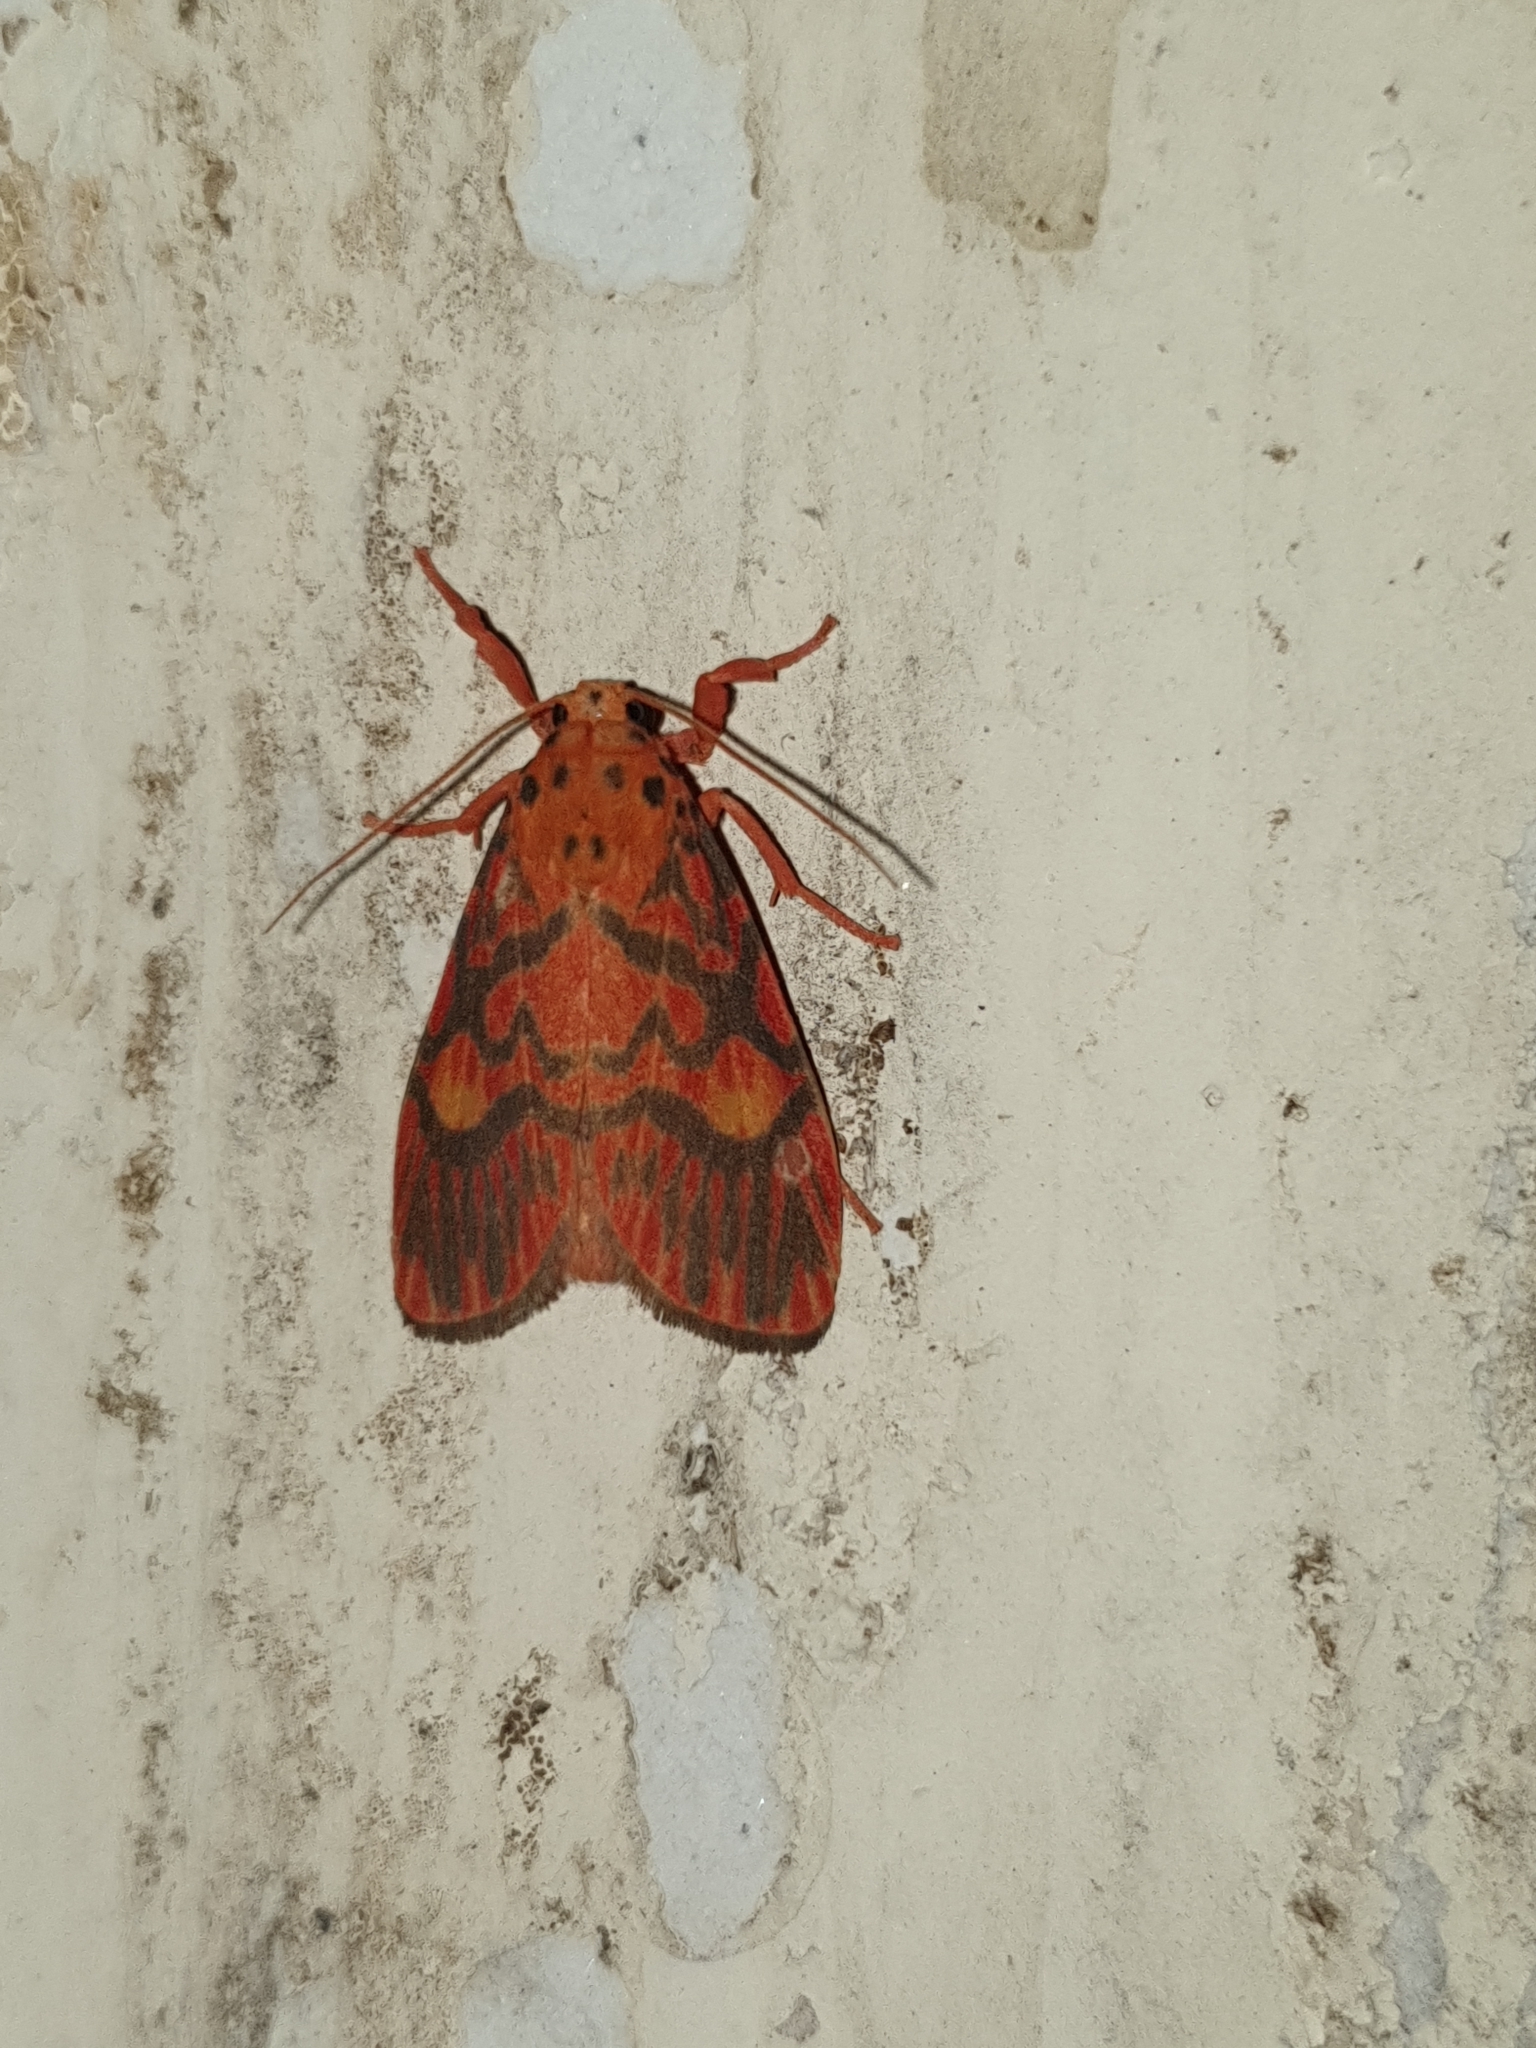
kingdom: Animalia
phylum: Arthropoda
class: Insecta
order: Lepidoptera
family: Erebidae
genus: Ammatho
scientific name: Ammatho cuneonotatus
